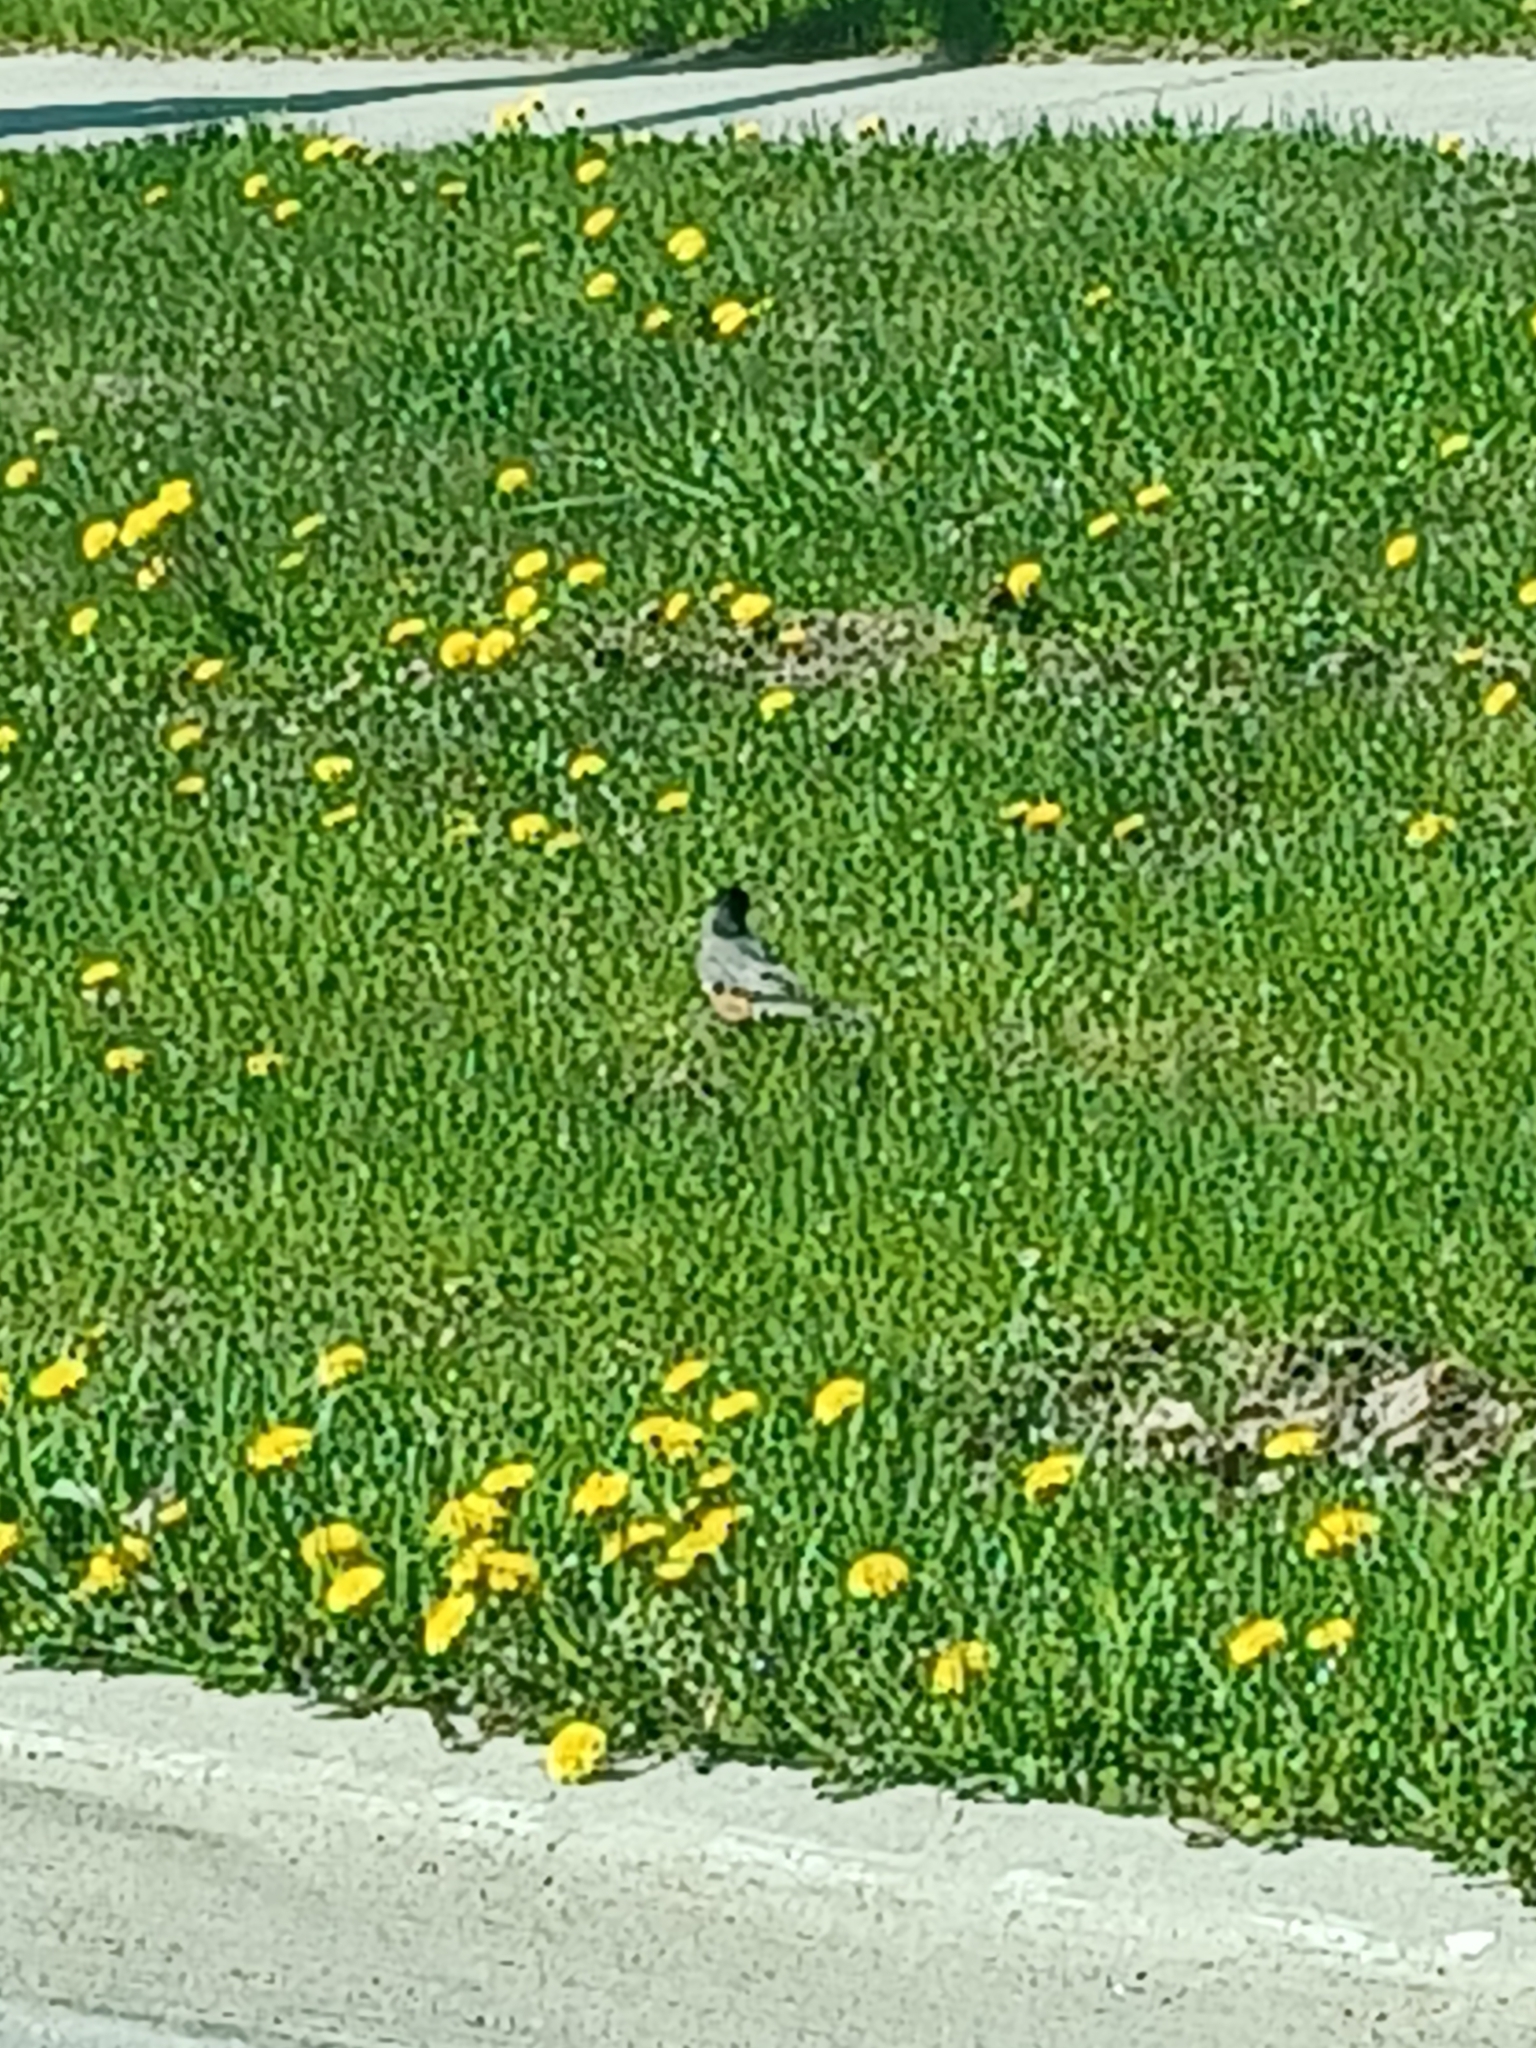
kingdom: Animalia
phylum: Chordata
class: Aves
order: Passeriformes
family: Turdidae
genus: Turdus
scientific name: Turdus migratorius
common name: American robin
